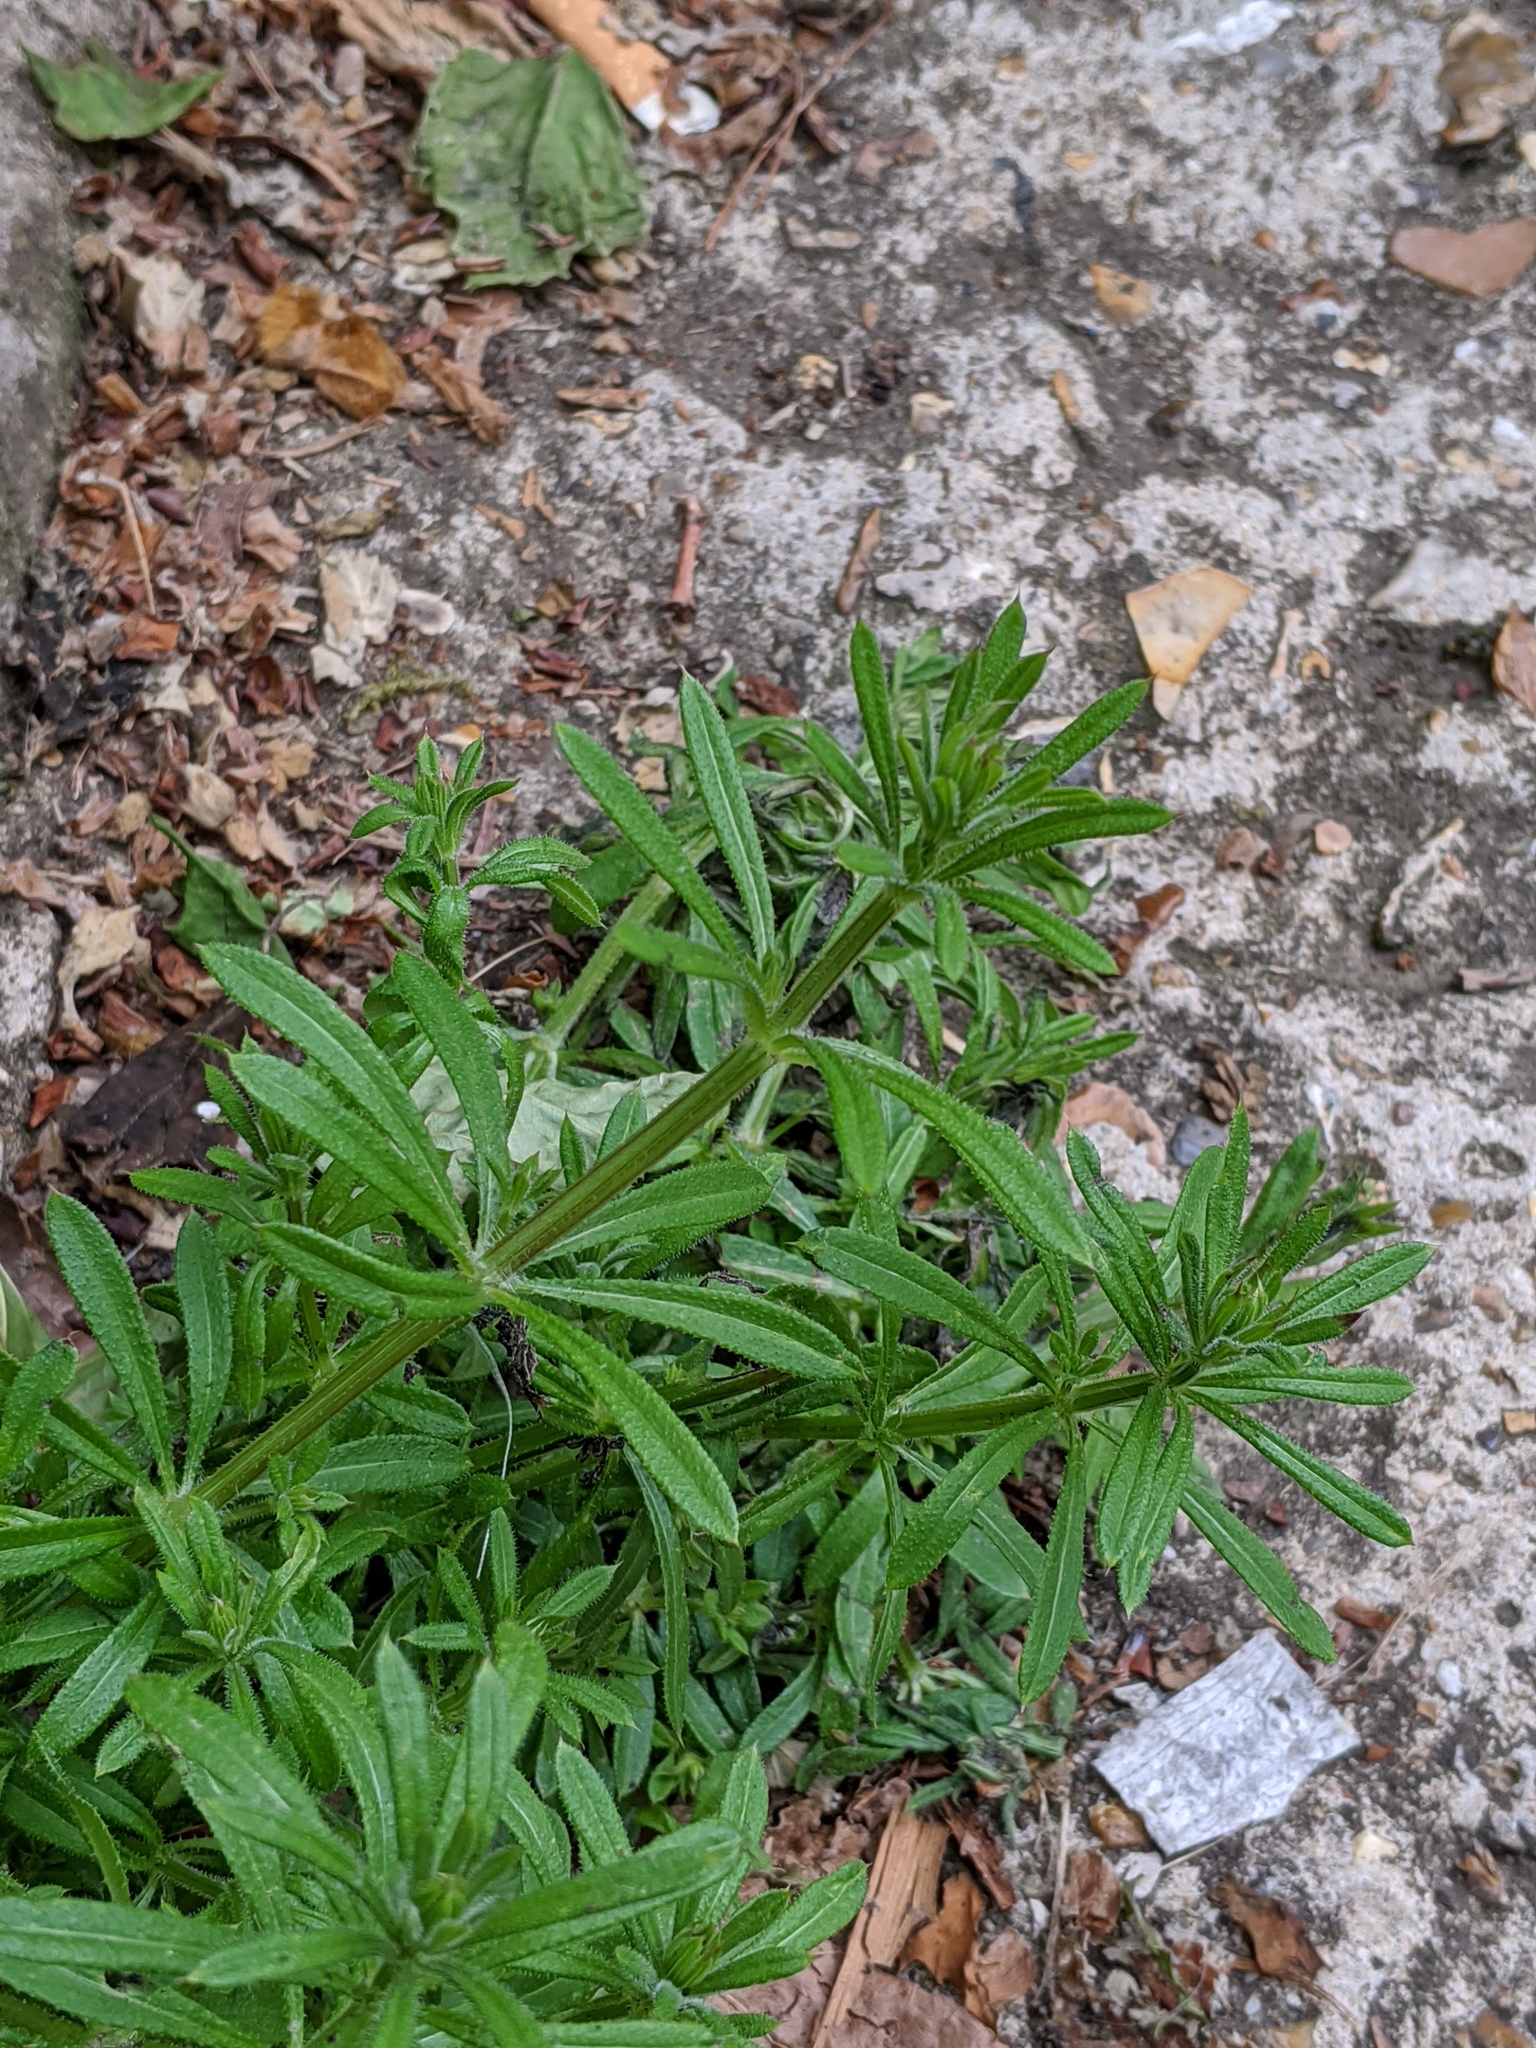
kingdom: Plantae
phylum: Tracheophyta
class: Magnoliopsida
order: Gentianales
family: Rubiaceae
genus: Galium
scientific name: Galium aparine
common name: Cleavers
